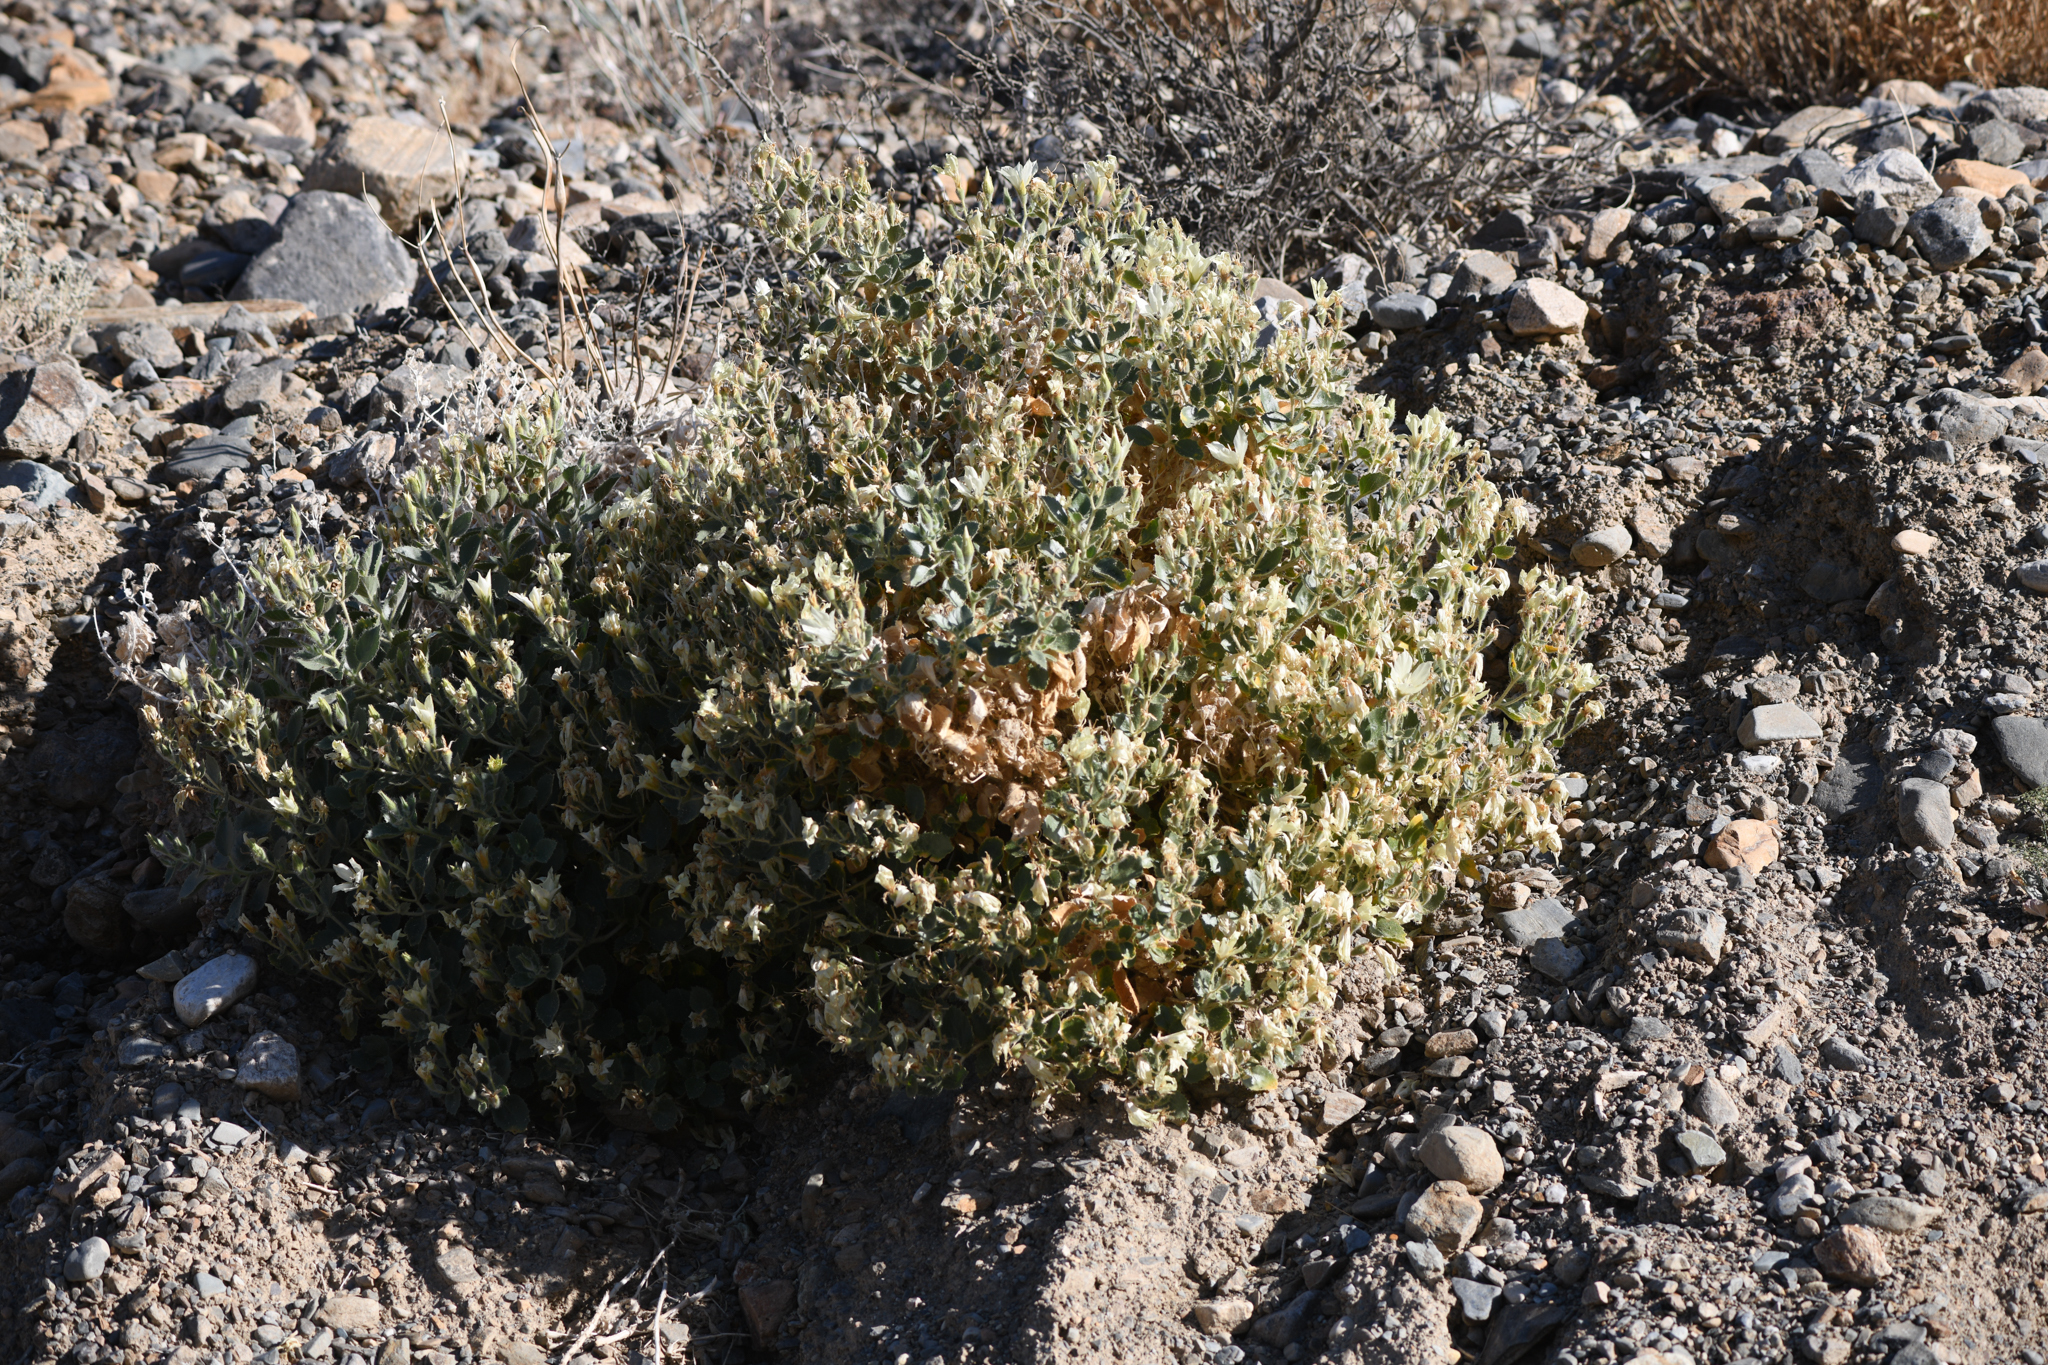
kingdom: Plantae
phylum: Tracheophyta
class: Magnoliopsida
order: Cornales
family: Loasaceae
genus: Eucnide
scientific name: Eucnide urens
